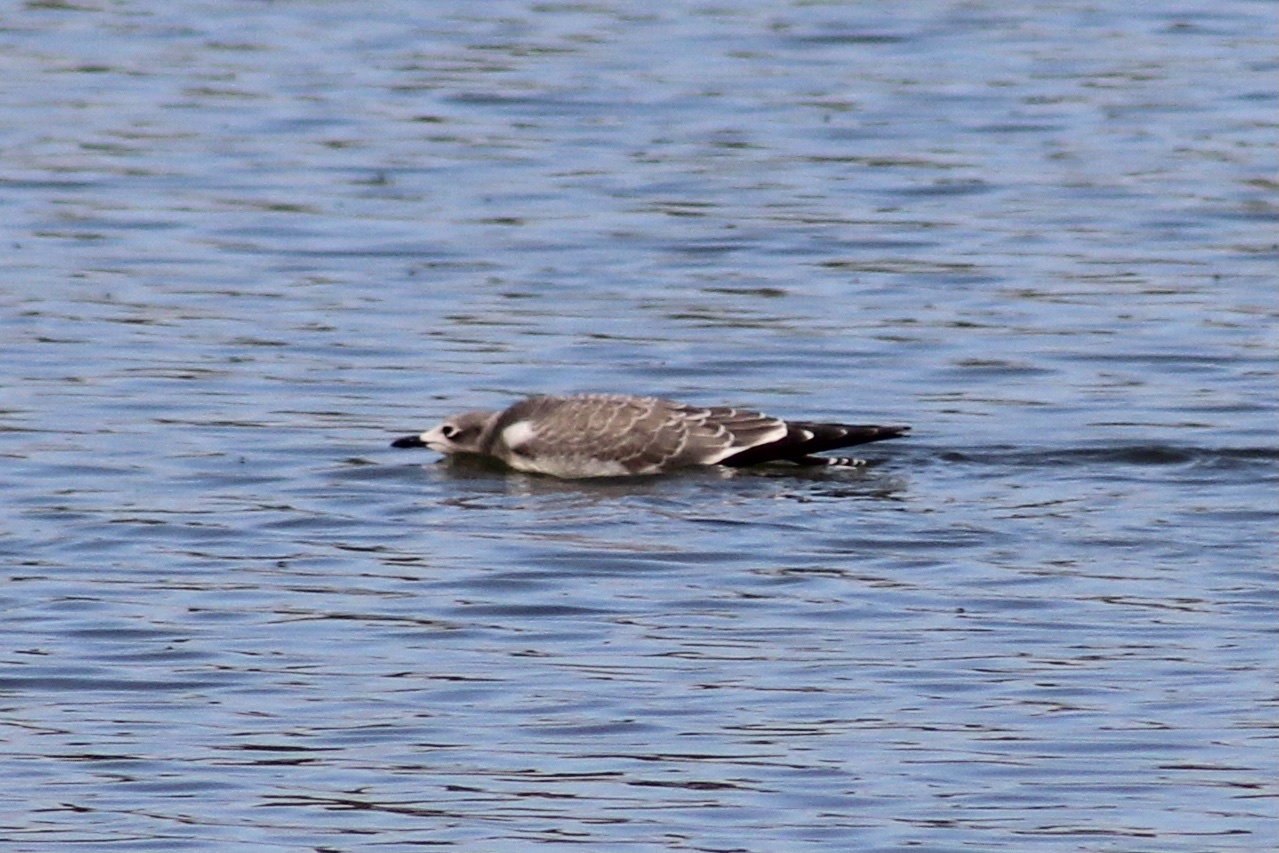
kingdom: Animalia
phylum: Chordata
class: Aves
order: Charadriiformes
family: Laridae
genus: Xema
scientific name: Xema sabini
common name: Sabine's gull
